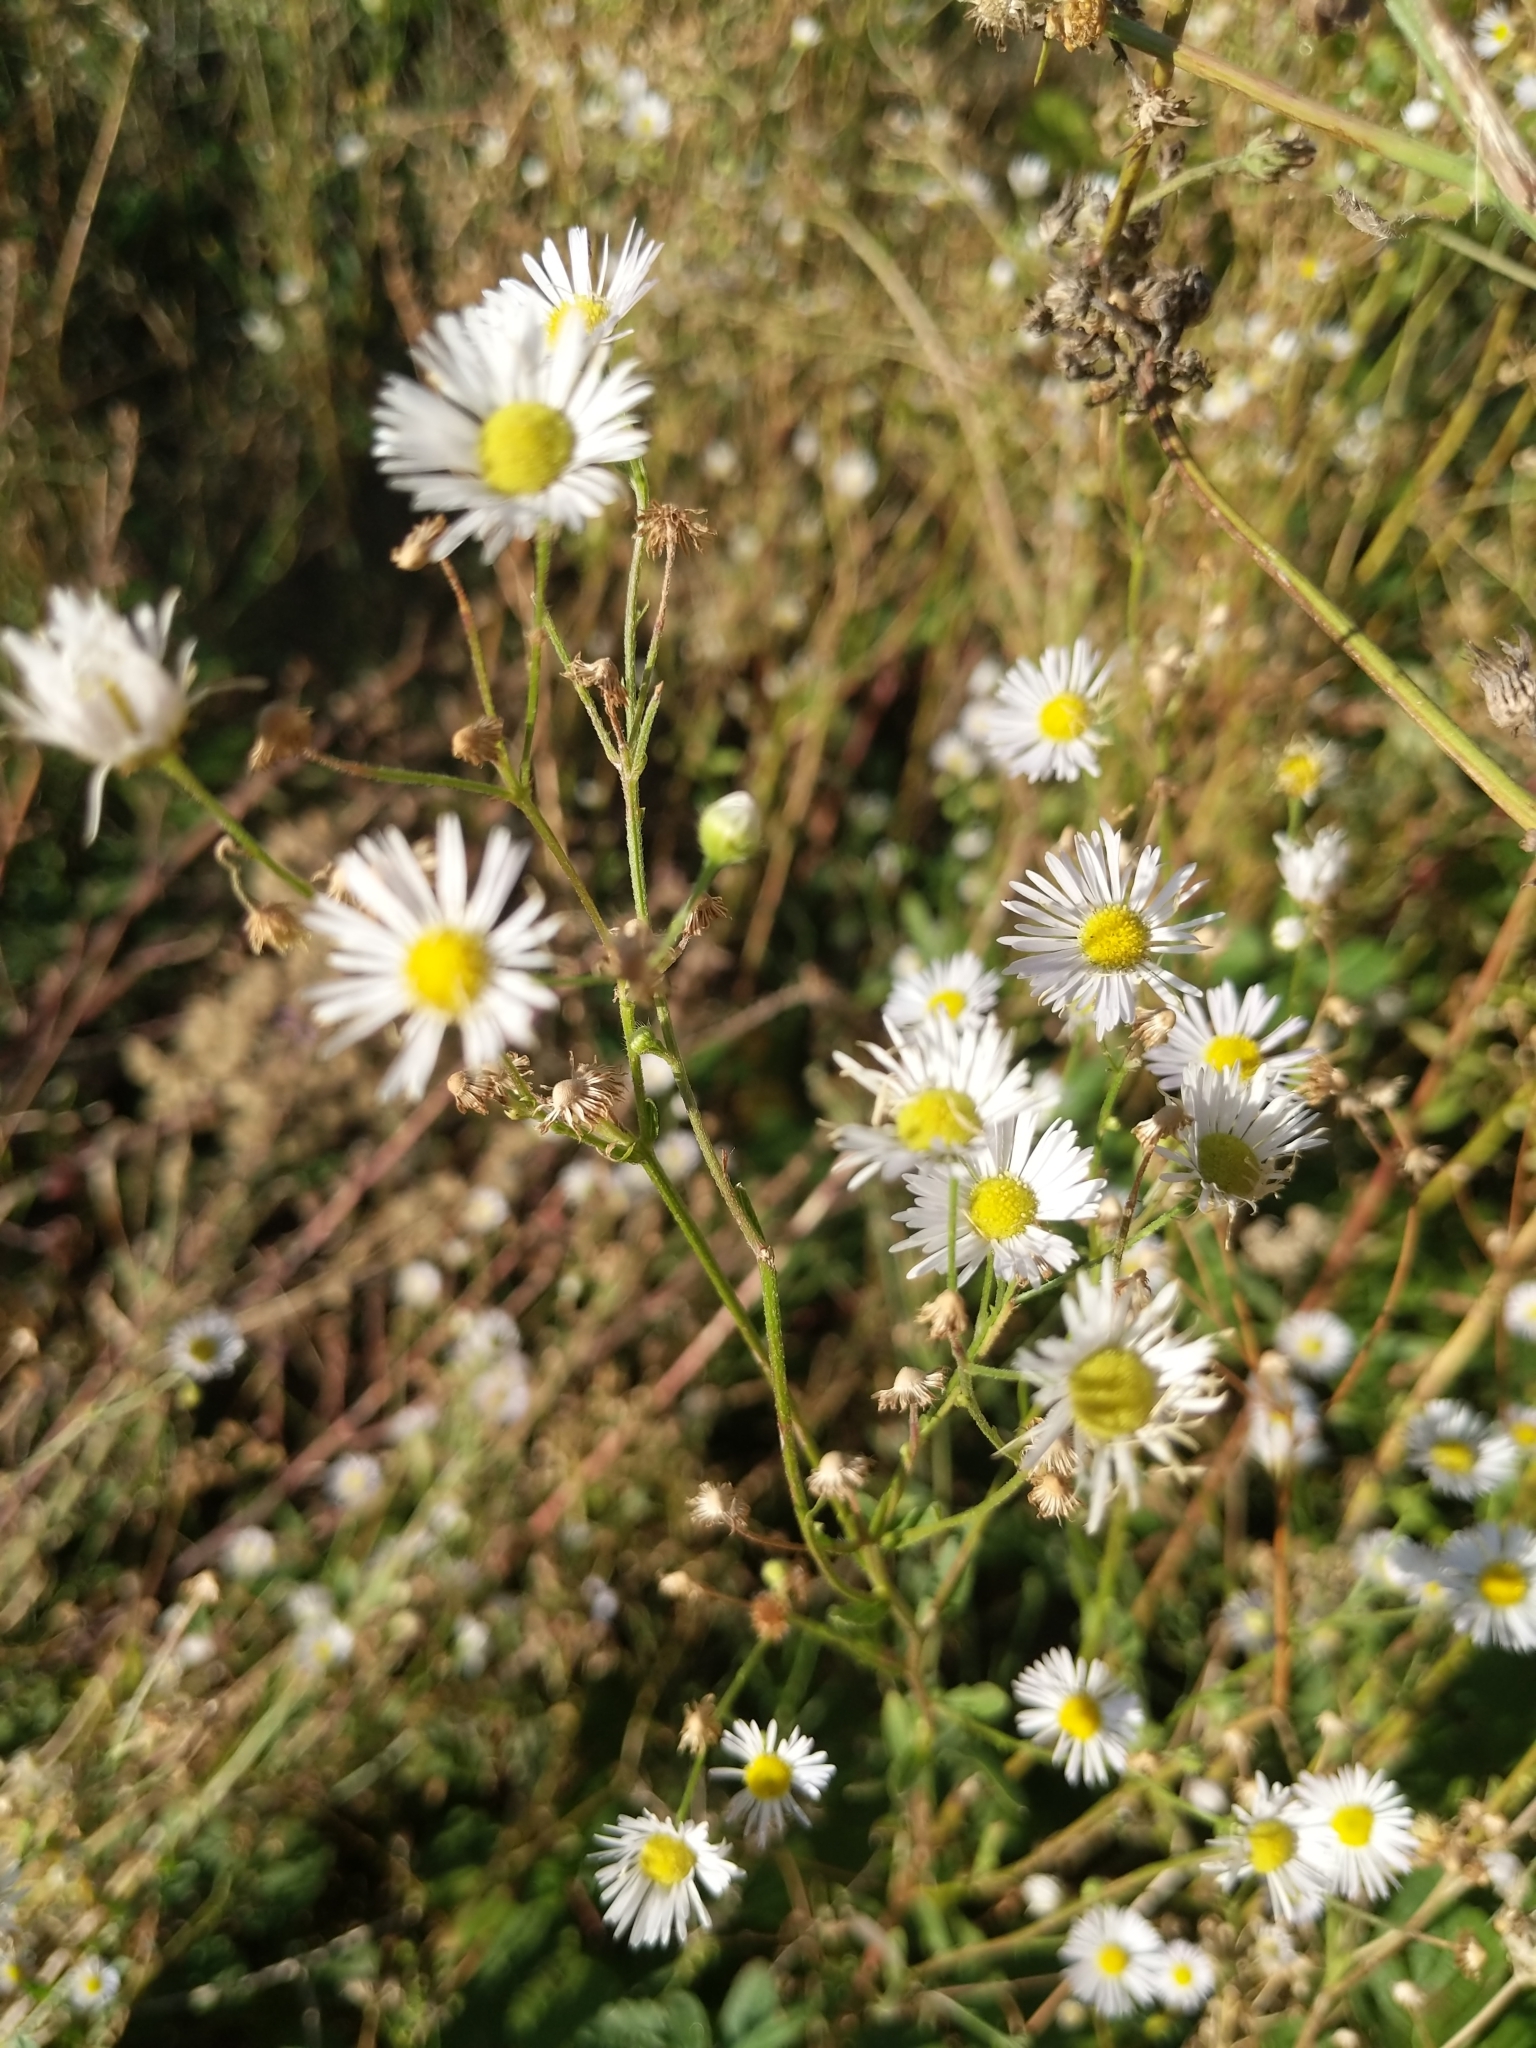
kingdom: Plantae
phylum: Tracheophyta
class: Magnoliopsida
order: Asterales
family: Asteraceae
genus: Erigeron
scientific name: Erigeron annuus
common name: Tall fleabane
